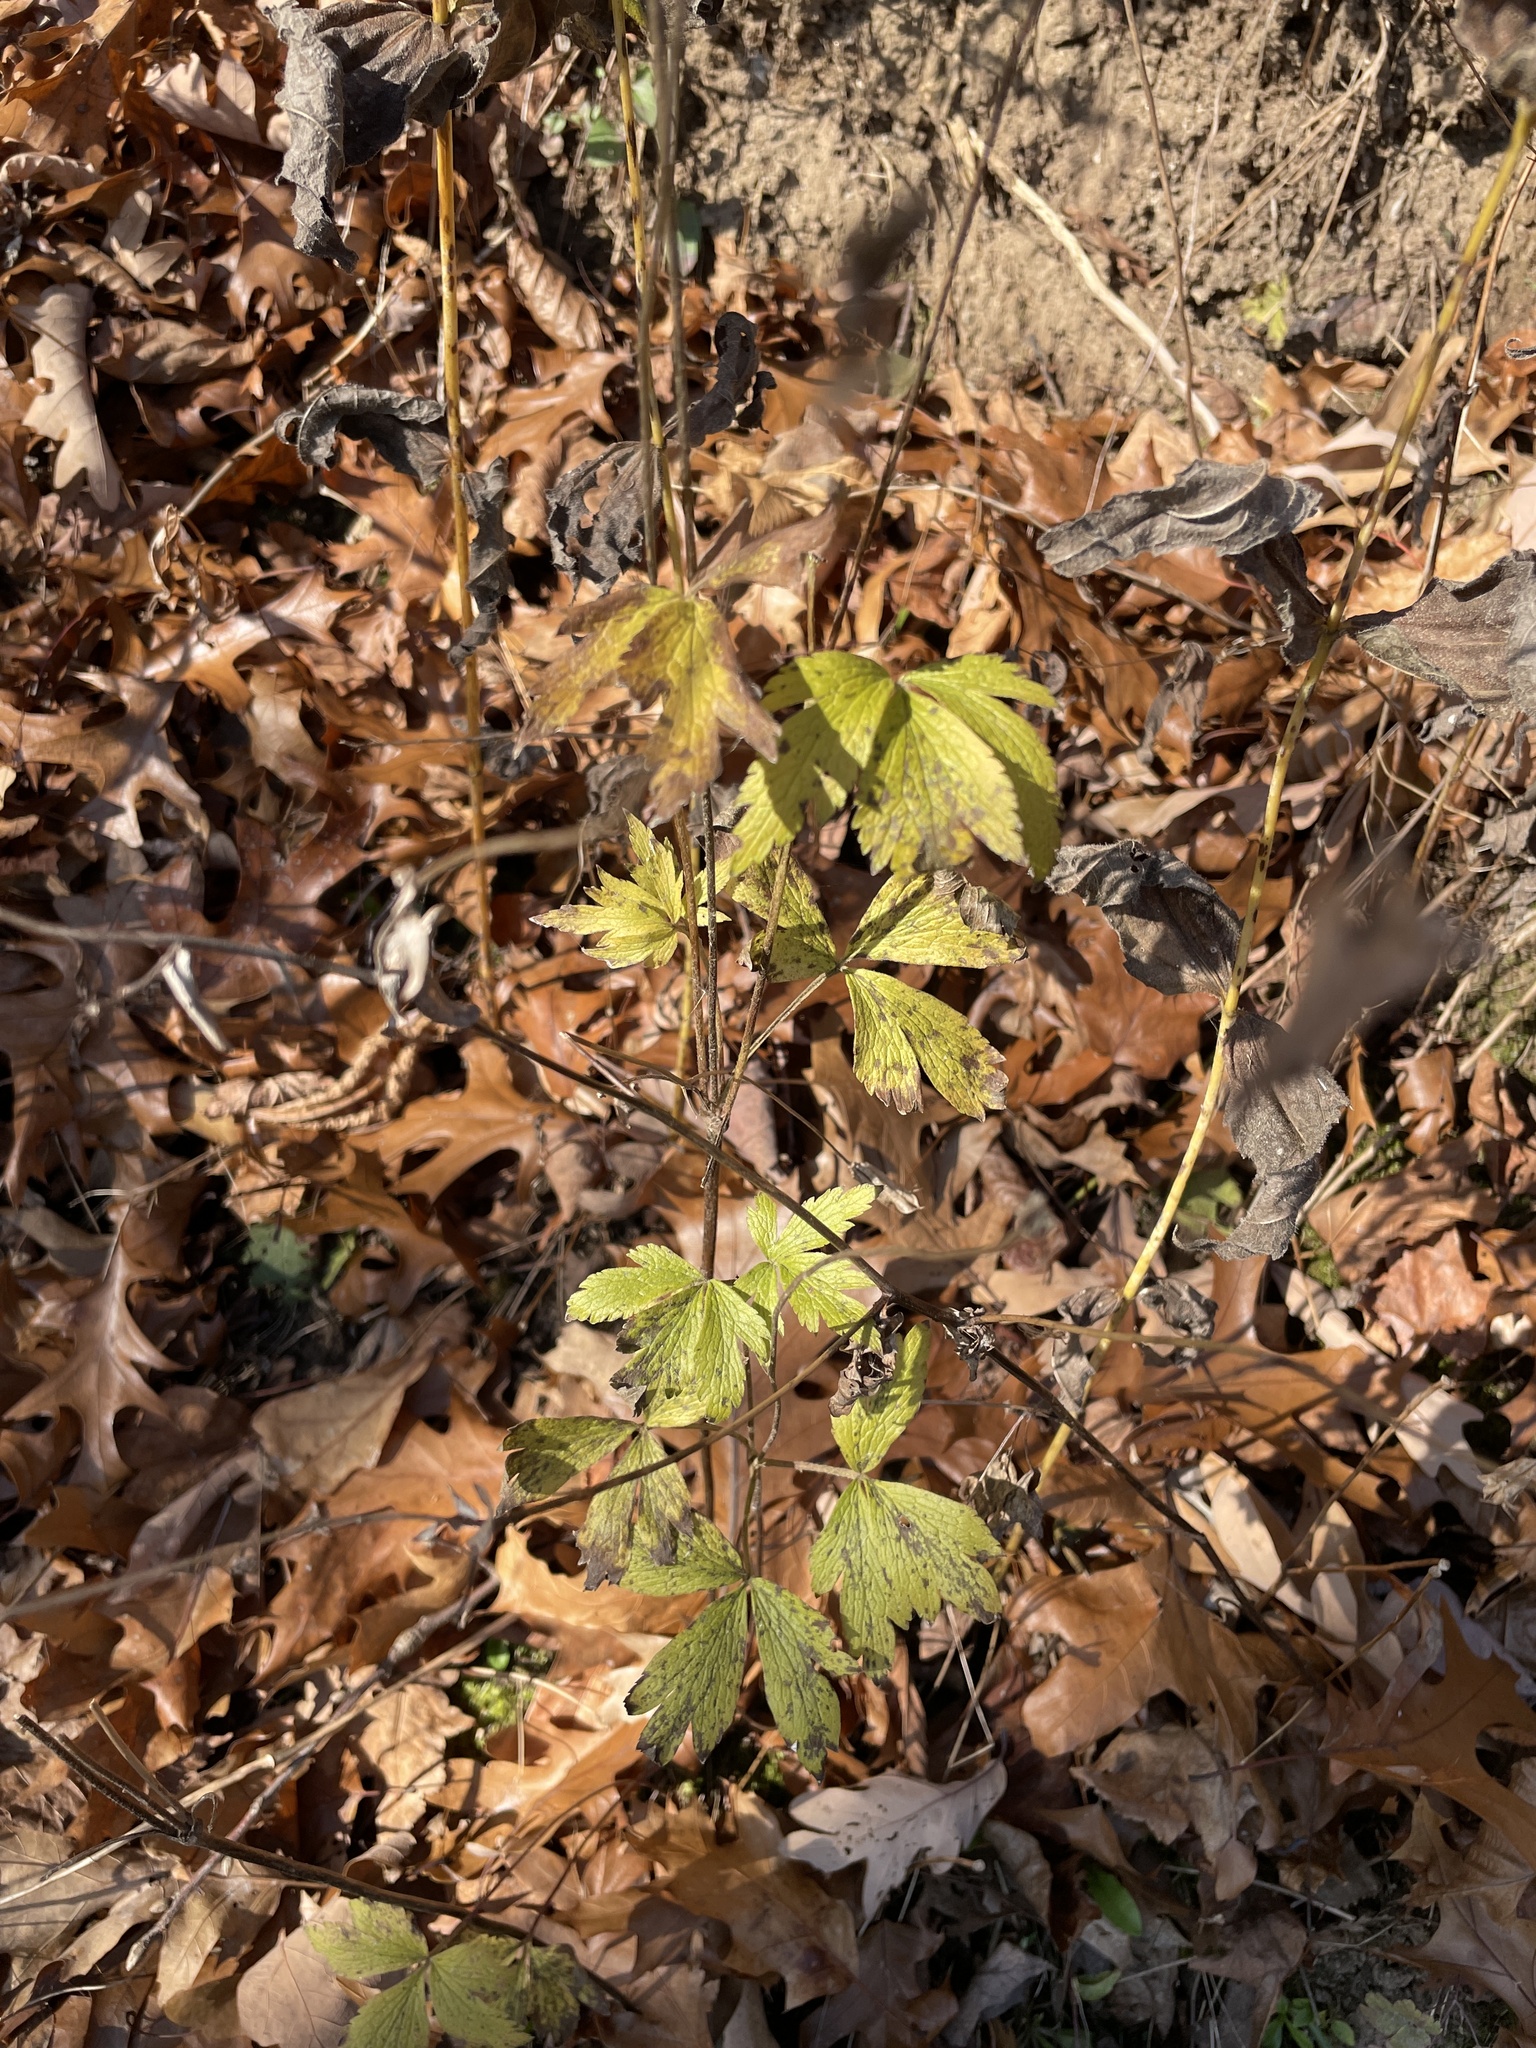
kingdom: Plantae
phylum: Tracheophyta
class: Magnoliopsida
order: Ranunculales
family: Ranunculaceae
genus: Anemone
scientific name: Anemone virginiana
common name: Tall anemone
